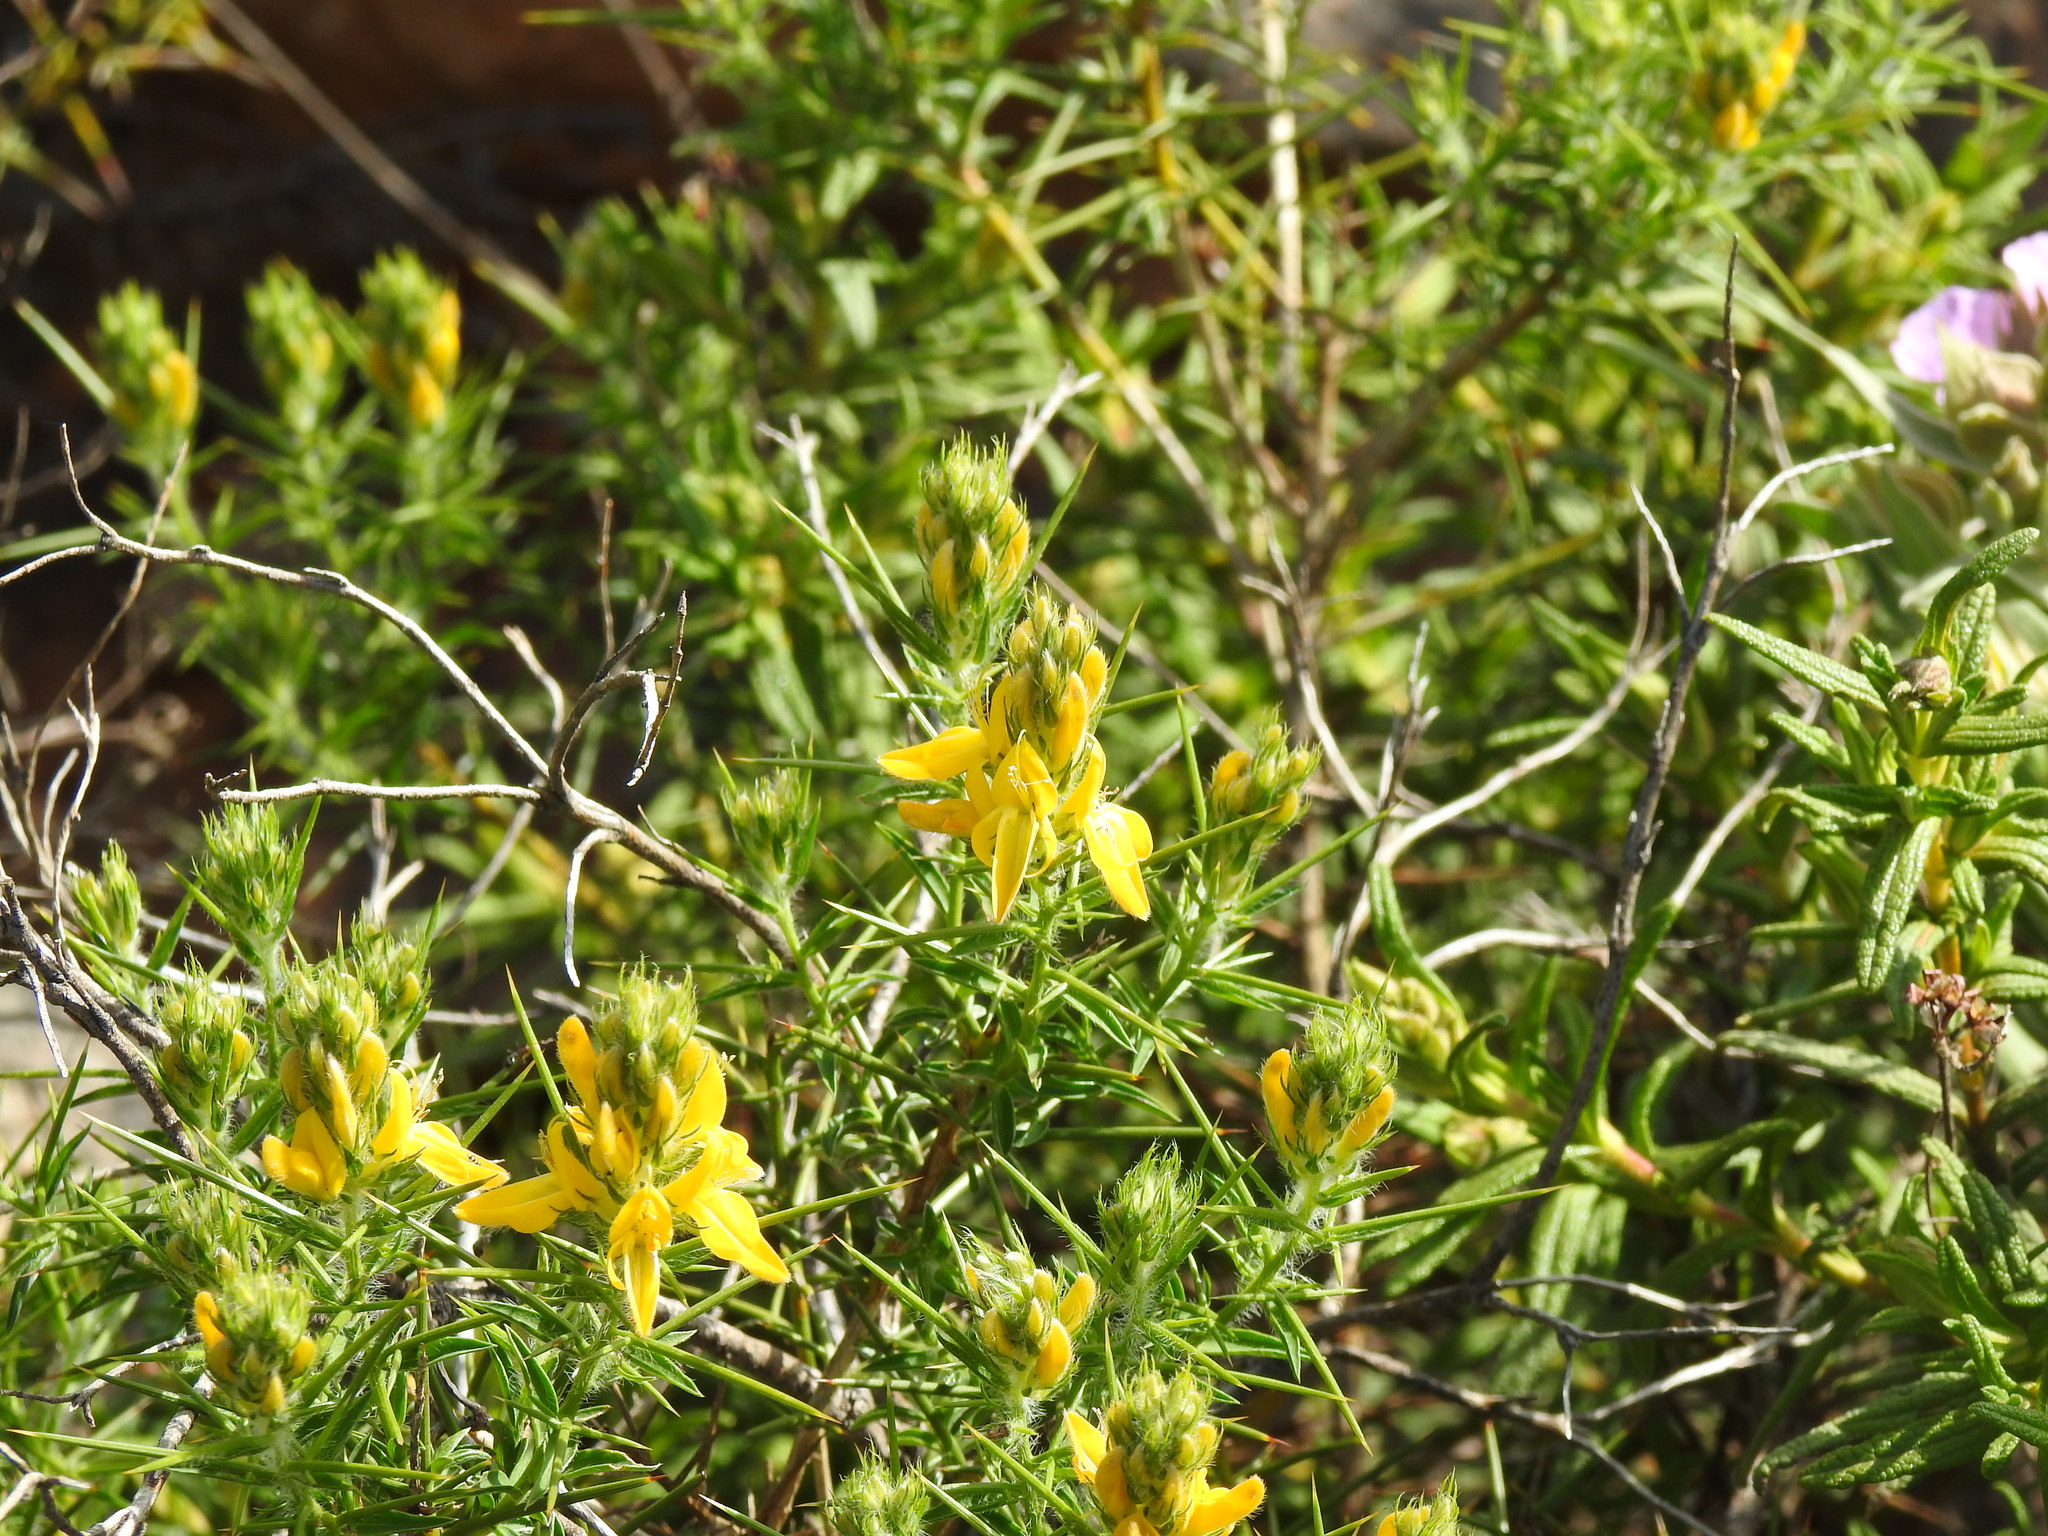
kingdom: Plantae
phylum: Tracheophyta
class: Magnoliopsida
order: Fabales
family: Fabaceae
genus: Genista
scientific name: Genista hirsuta
